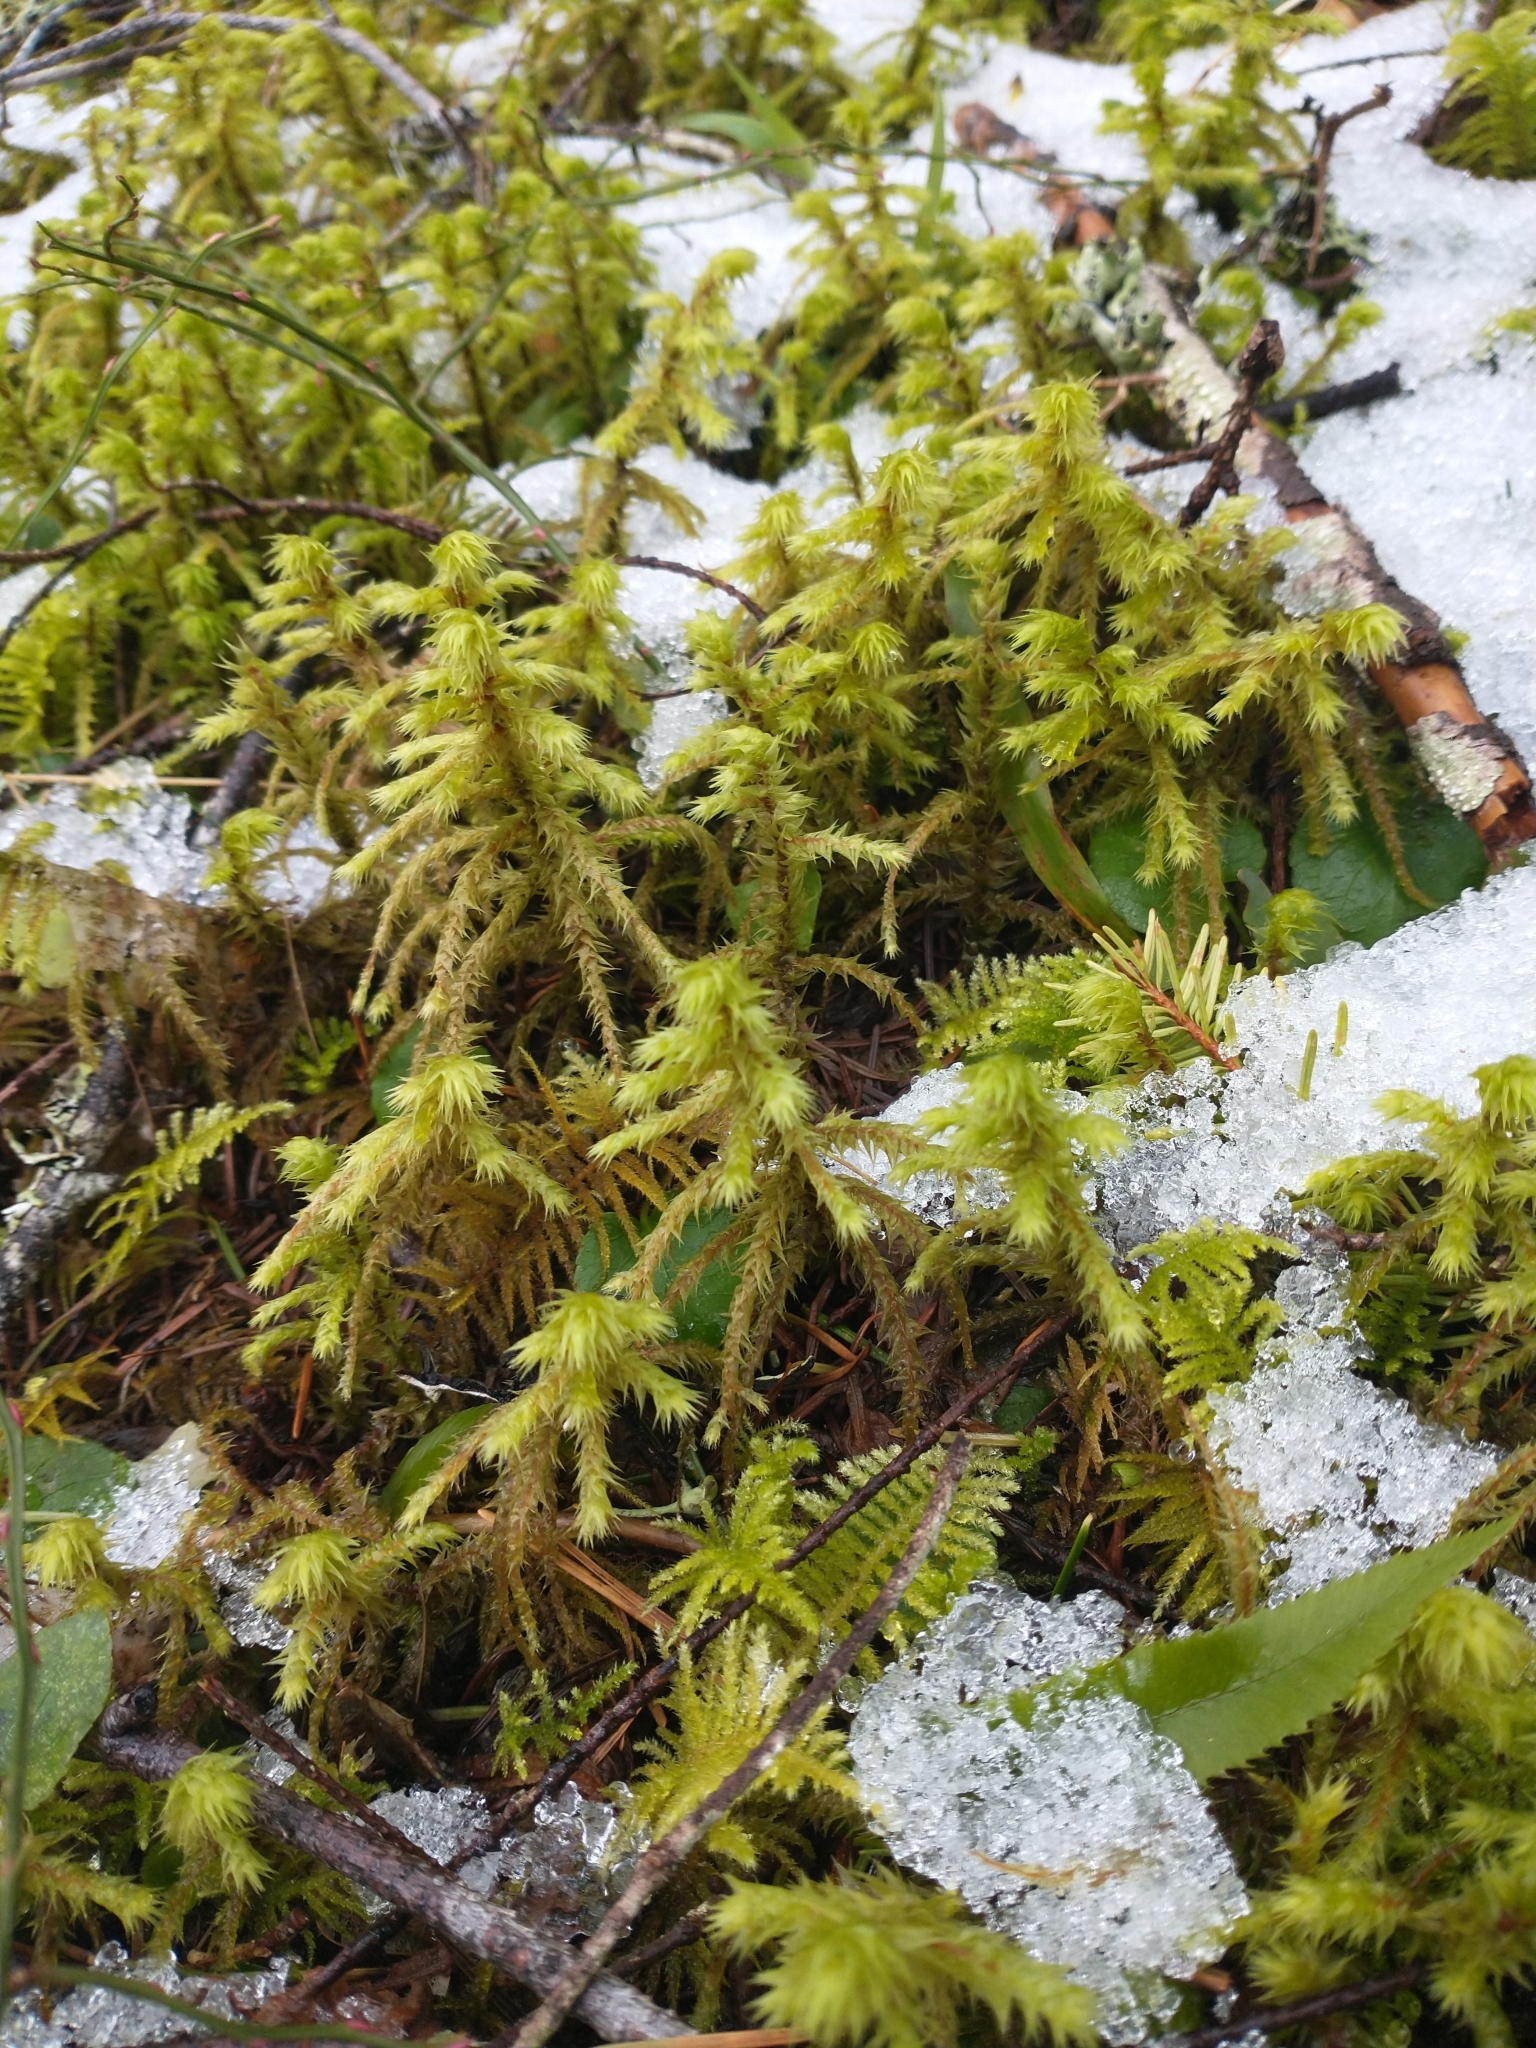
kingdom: Plantae
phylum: Bryophyta
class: Bryopsida
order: Hypnales
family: Hylocomiaceae
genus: Hylocomiadelphus
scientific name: Hylocomiadelphus triquetrus
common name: Rough goose neck moss
